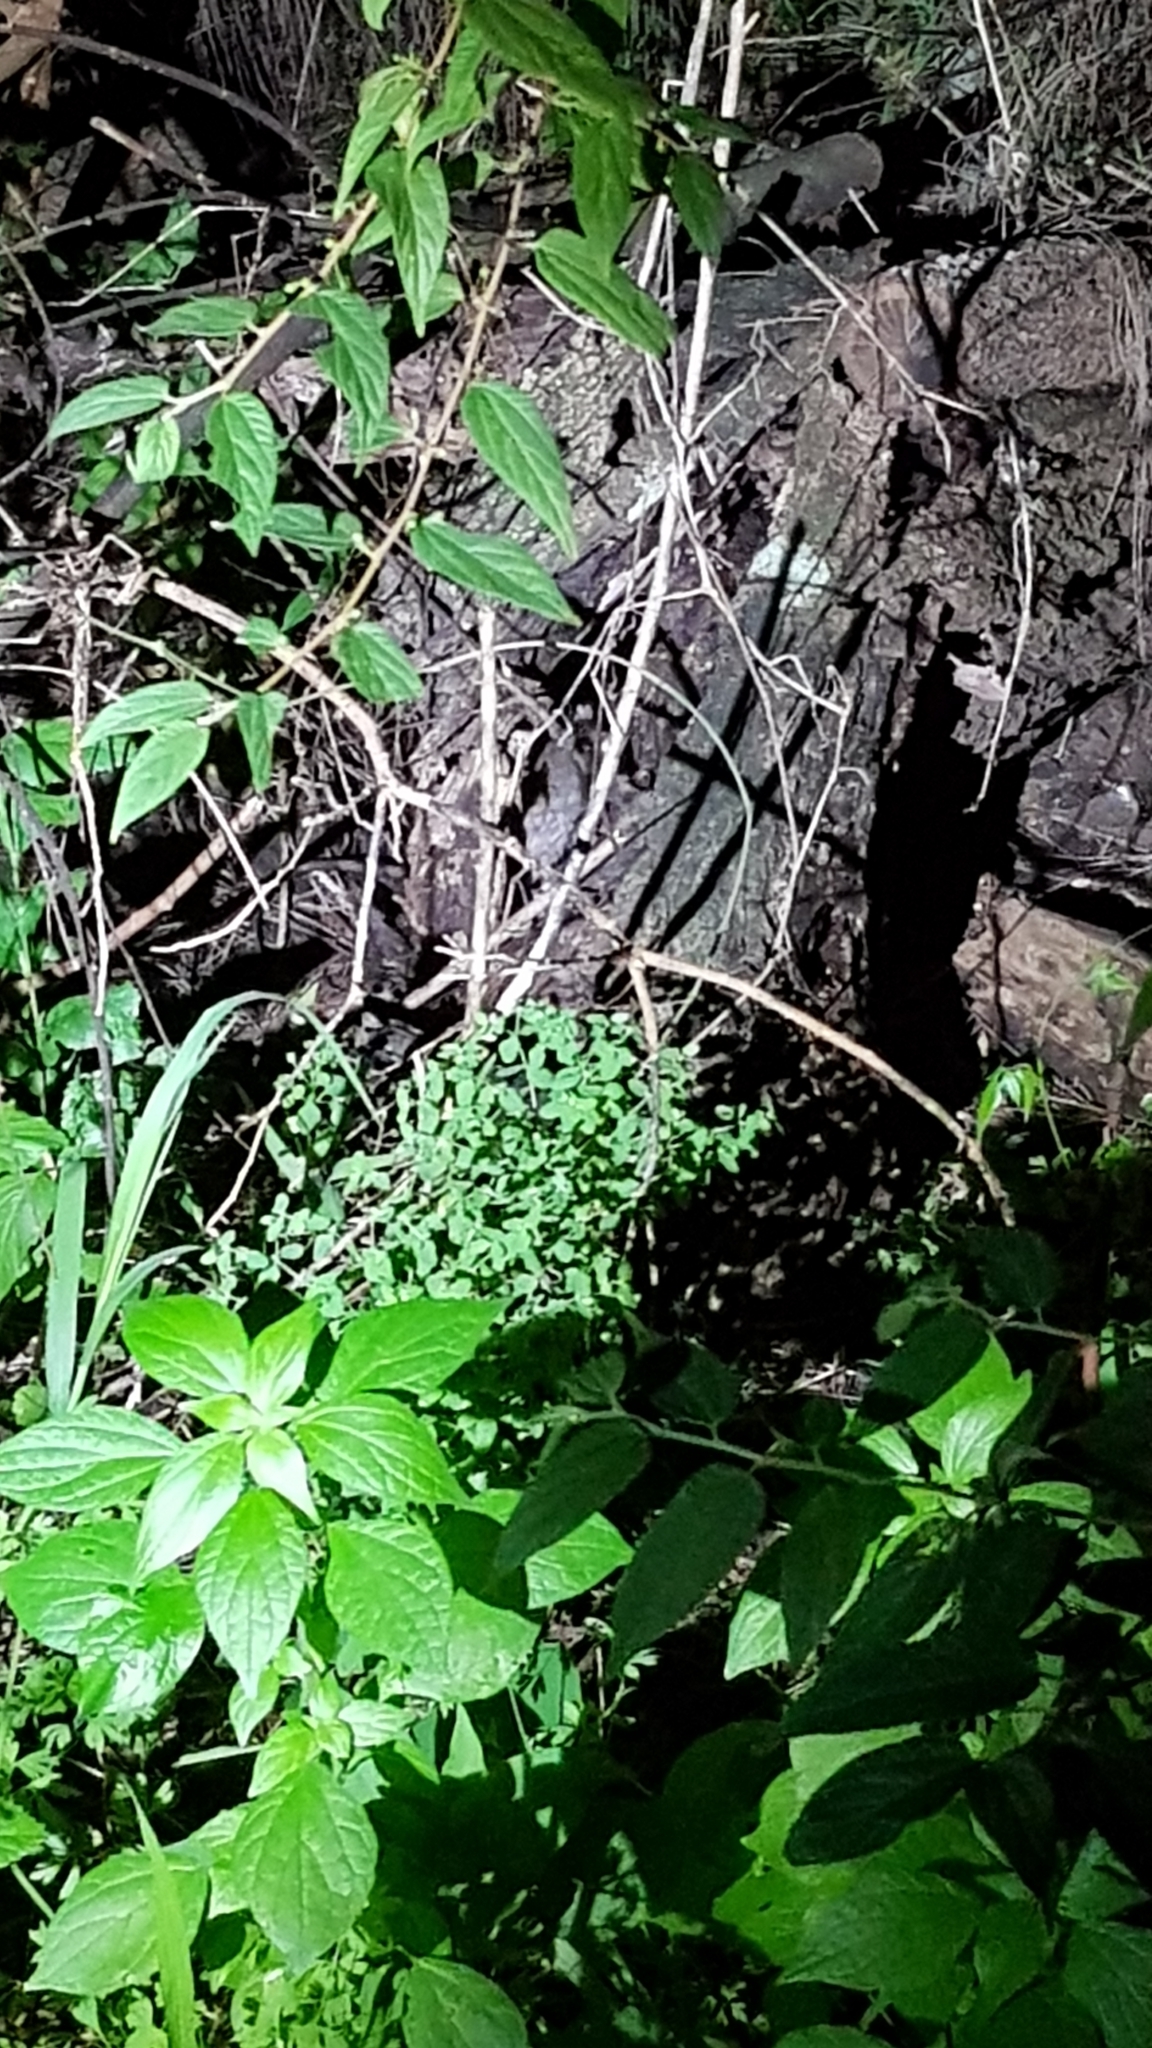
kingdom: Animalia
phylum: Chordata
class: Mammalia
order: Rodentia
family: Muridae
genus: Rattus
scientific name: Rattus rattus
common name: Black rat
